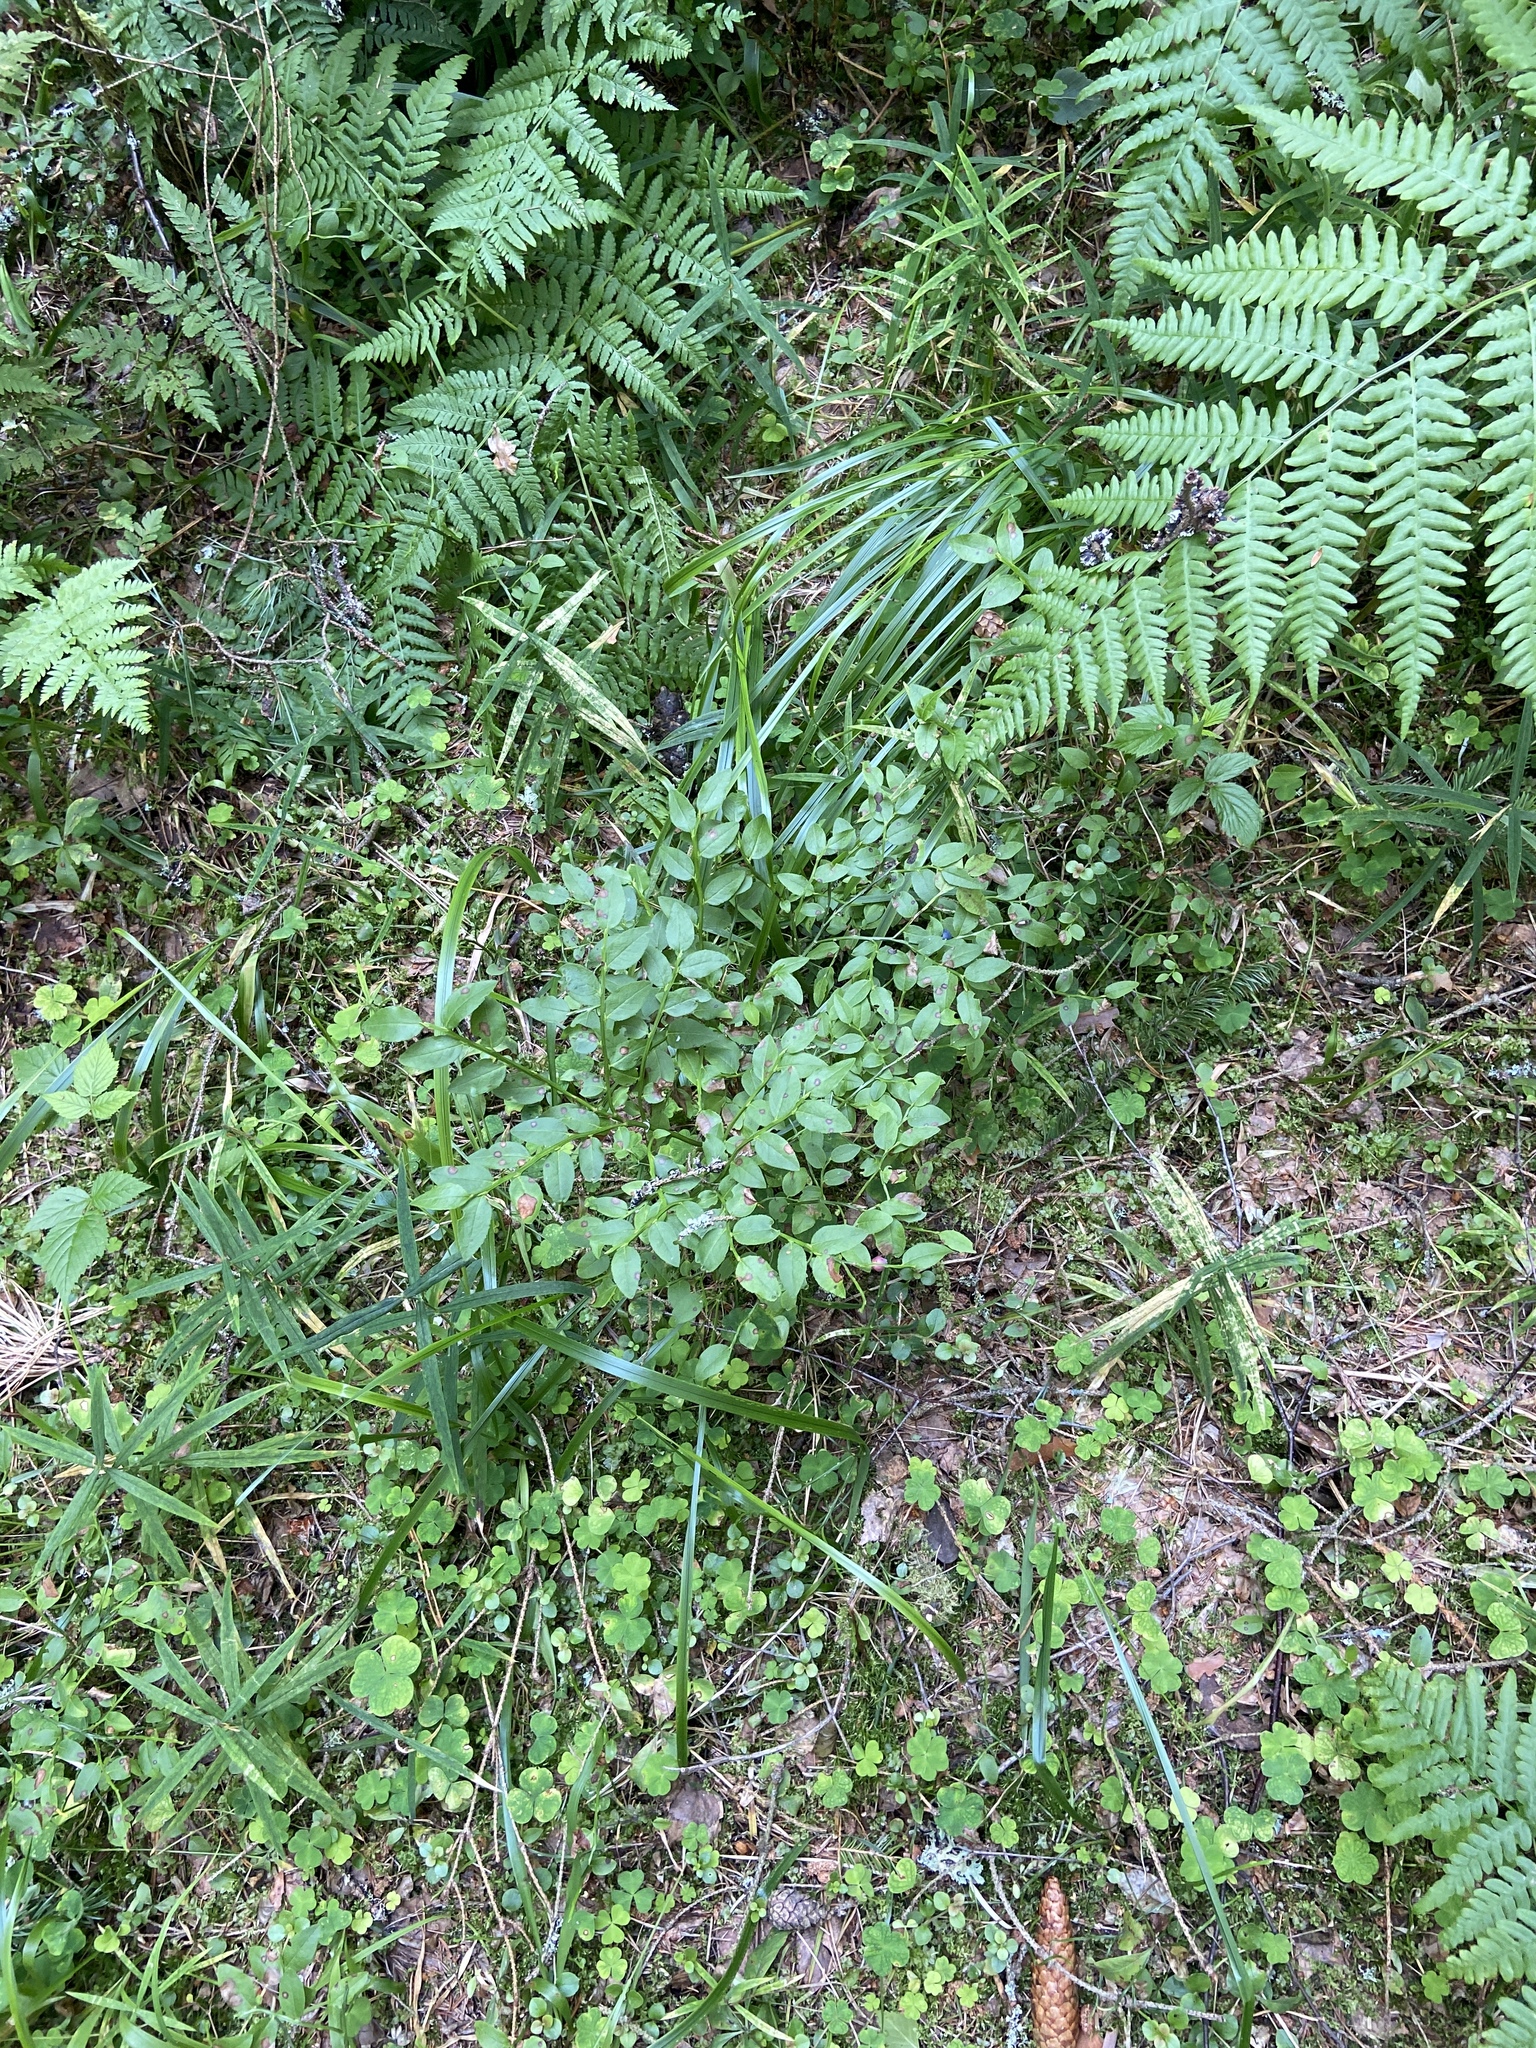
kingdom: Plantae
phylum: Tracheophyta
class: Magnoliopsida
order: Ericales
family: Ericaceae
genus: Vaccinium
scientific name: Vaccinium myrtillus
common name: Bilberry
